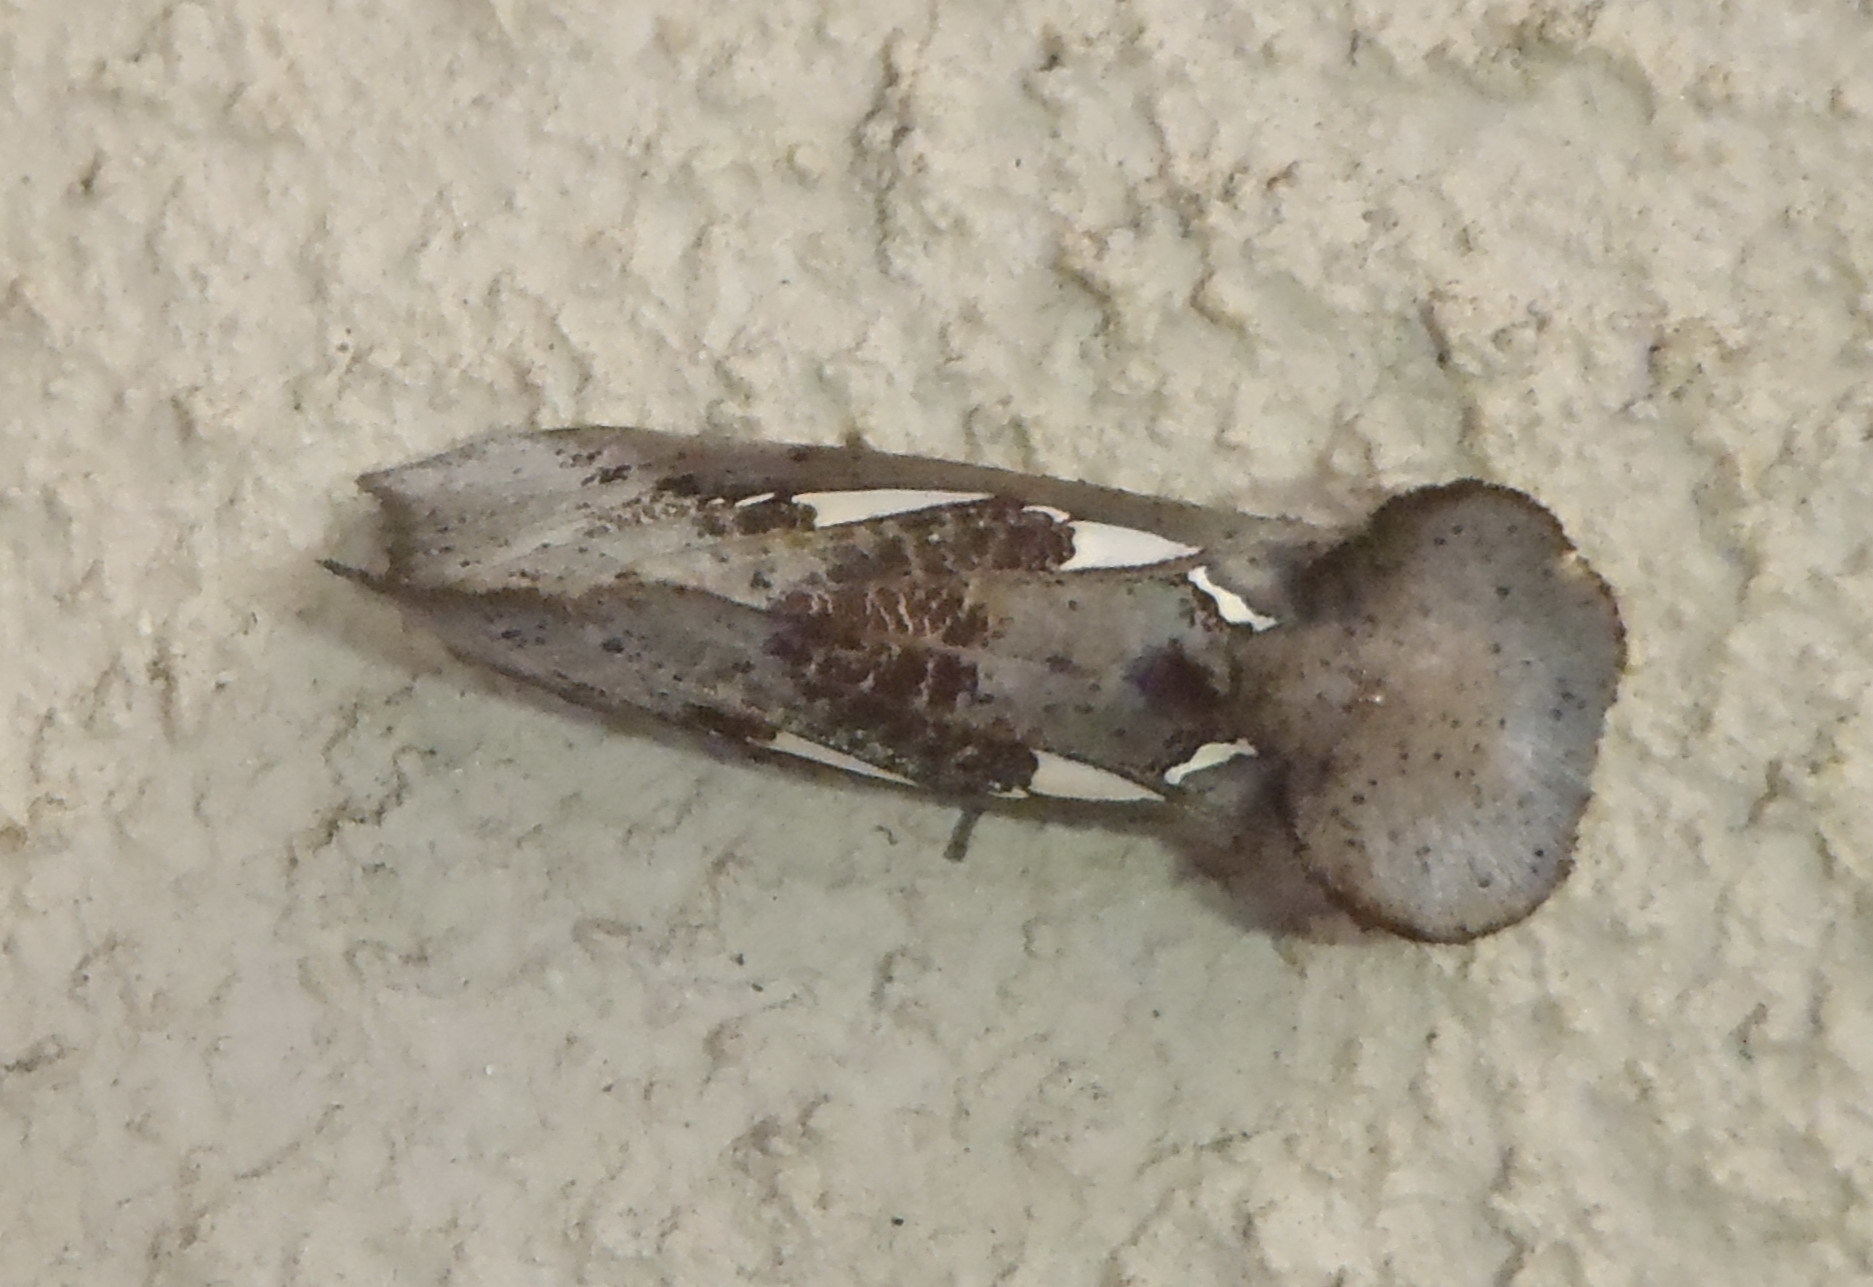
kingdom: Animalia
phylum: Arthropoda
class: Insecta
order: Lepidoptera
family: Erebidae
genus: Antiophlebia
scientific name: Antiophlebia bracteata
